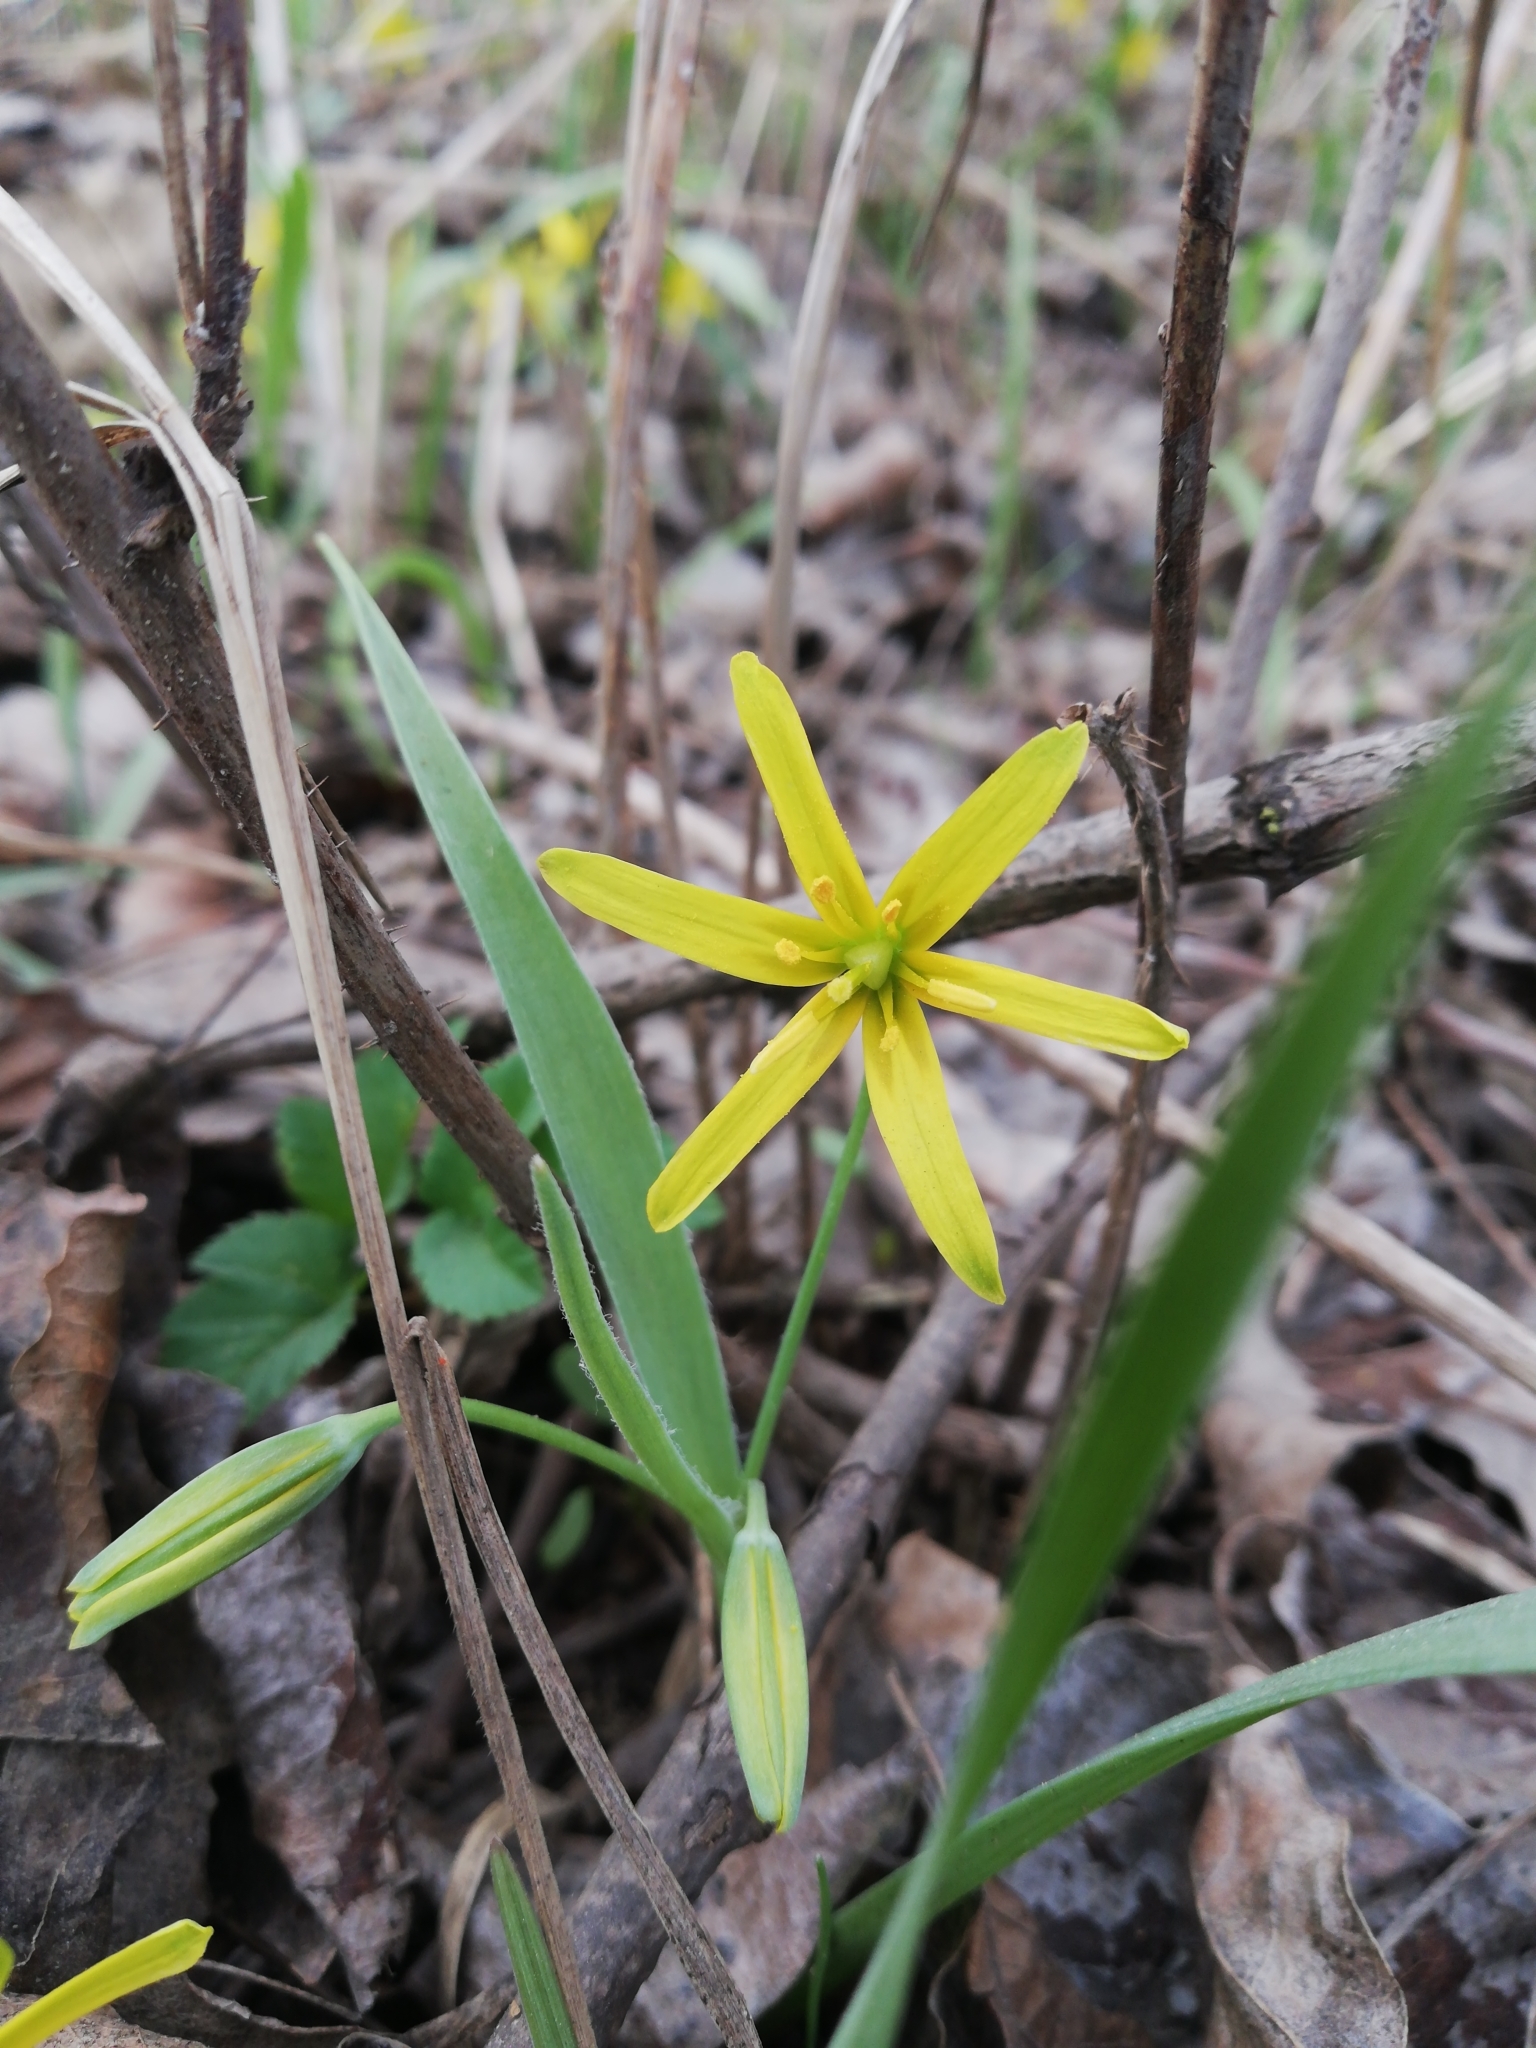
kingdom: Plantae
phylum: Tracheophyta
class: Liliopsida
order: Liliales
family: Liliaceae
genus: Gagea
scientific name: Gagea lutea
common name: Yellow star-of-bethlehem
